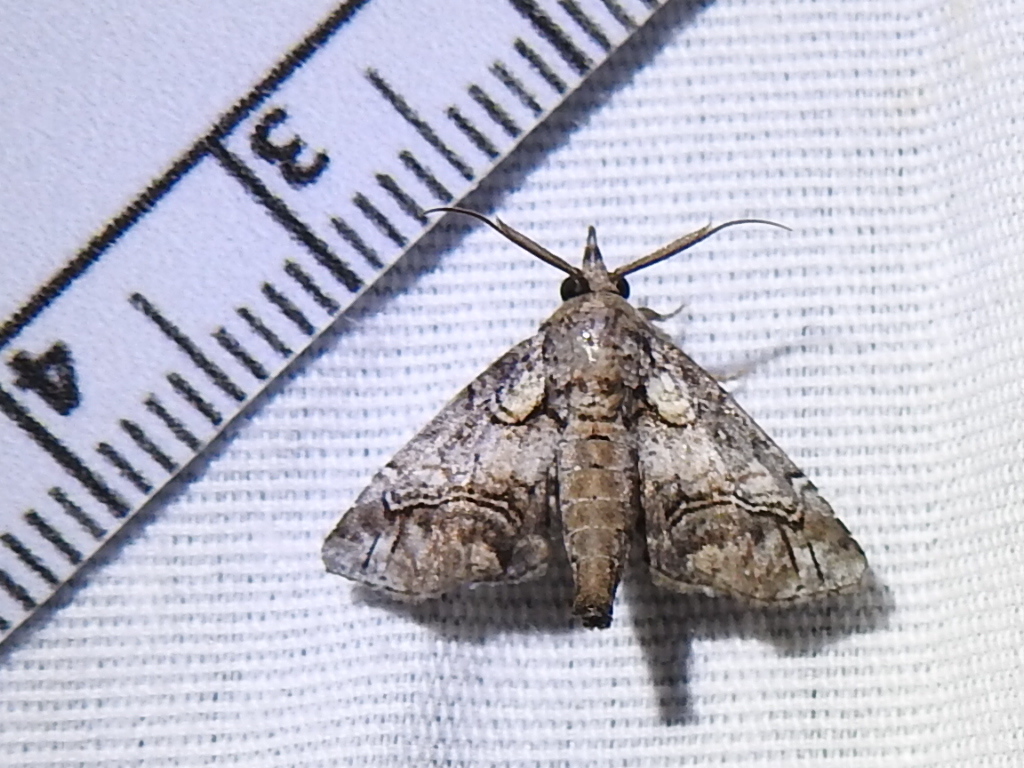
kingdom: Animalia
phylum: Arthropoda
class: Insecta
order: Lepidoptera
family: Euteliidae
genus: Paectes
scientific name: Paectes abrostolella
